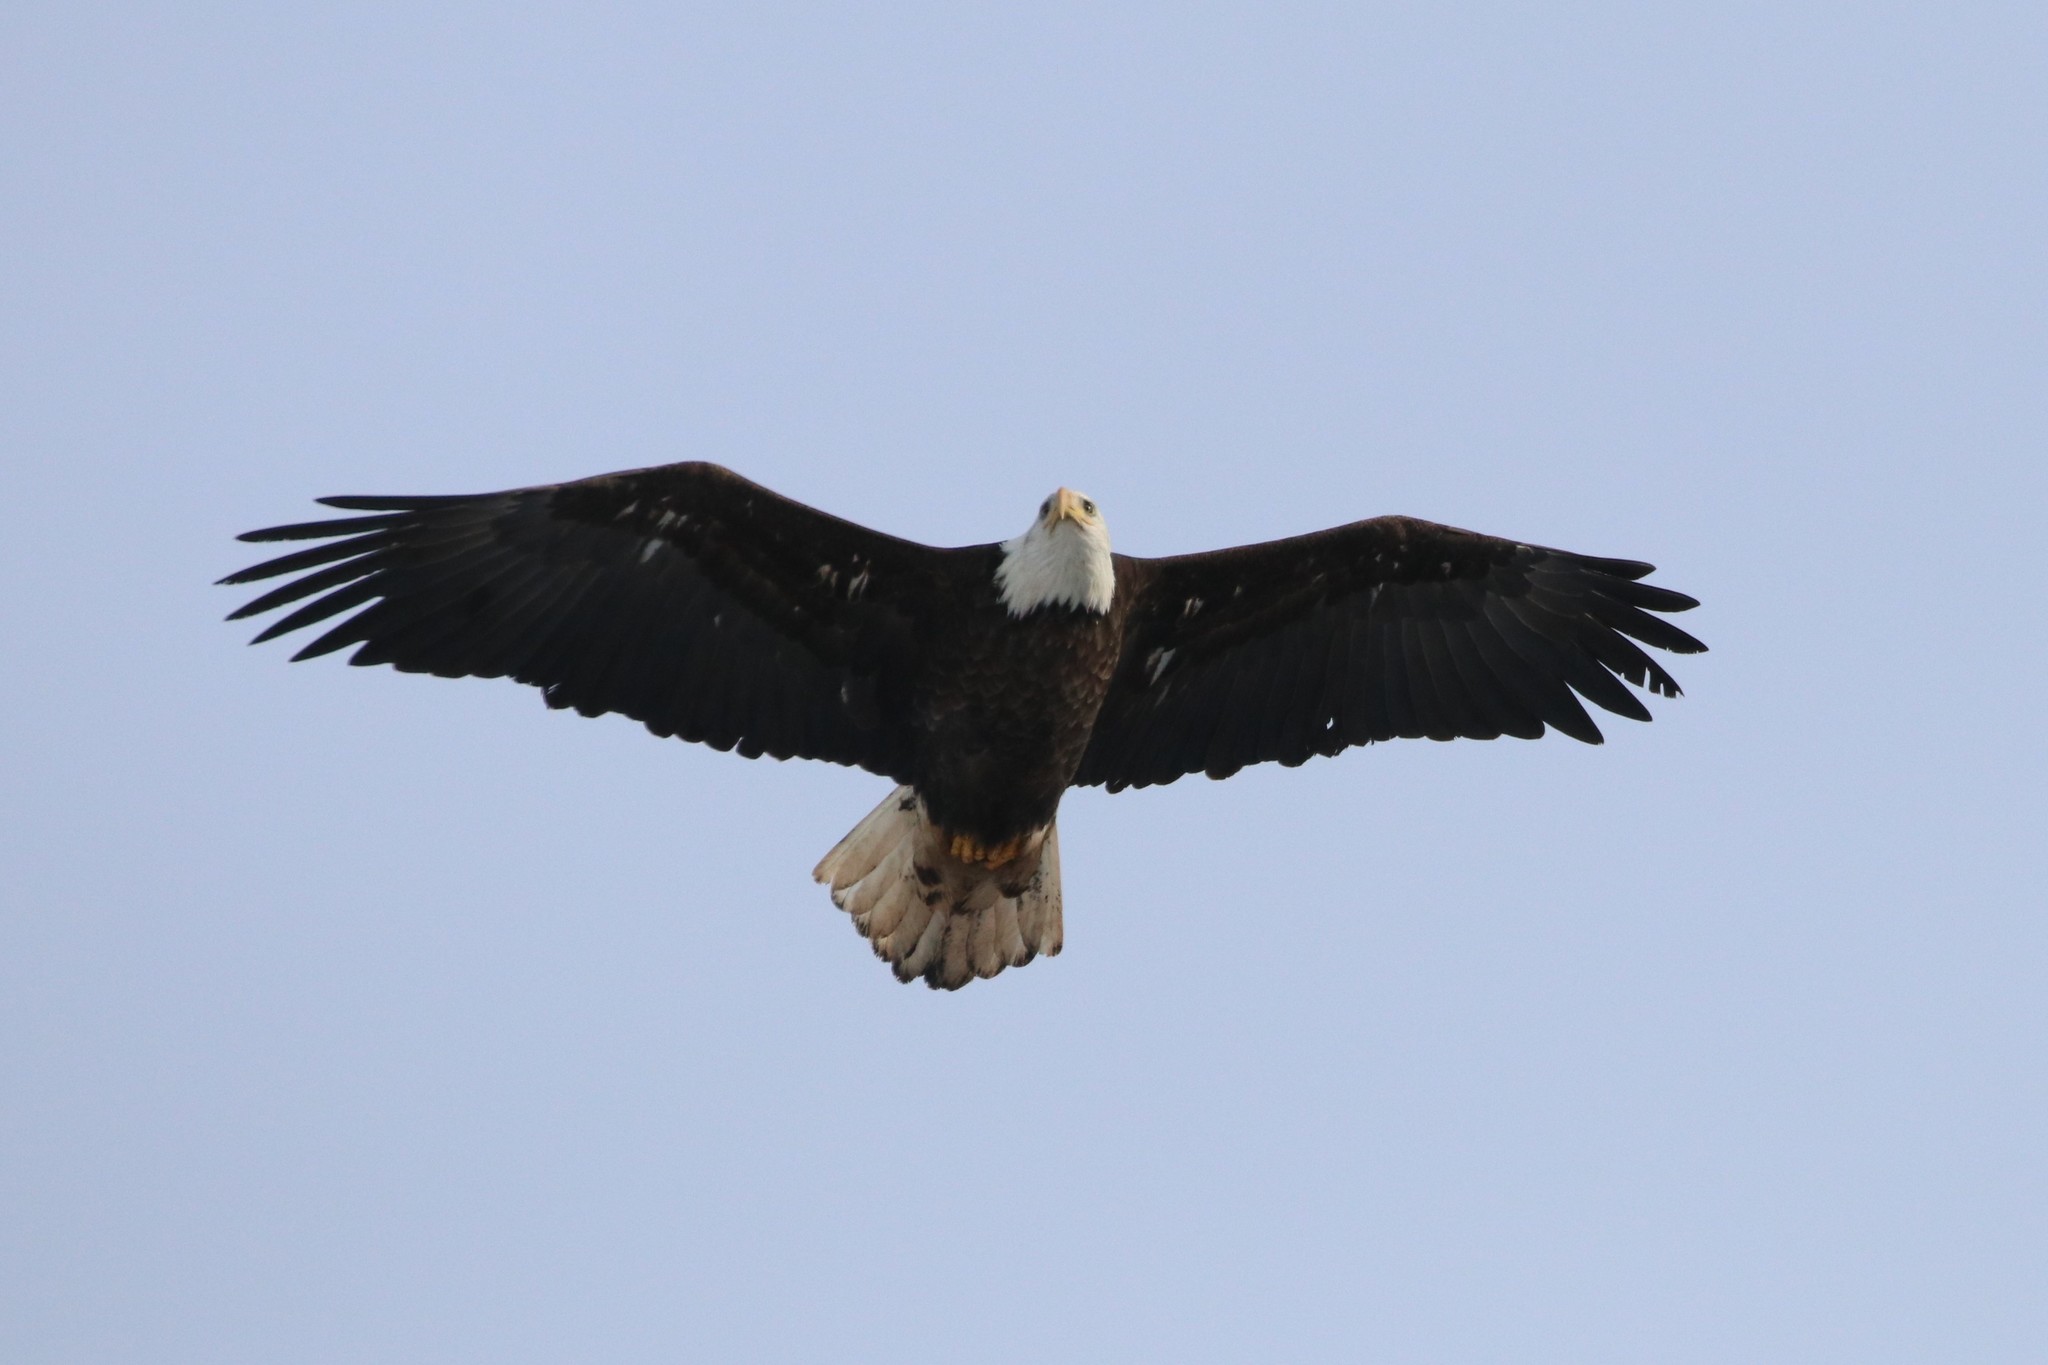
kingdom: Animalia
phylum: Chordata
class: Aves
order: Accipitriformes
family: Accipitridae
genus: Haliaeetus
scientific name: Haliaeetus leucocephalus
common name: Bald eagle
